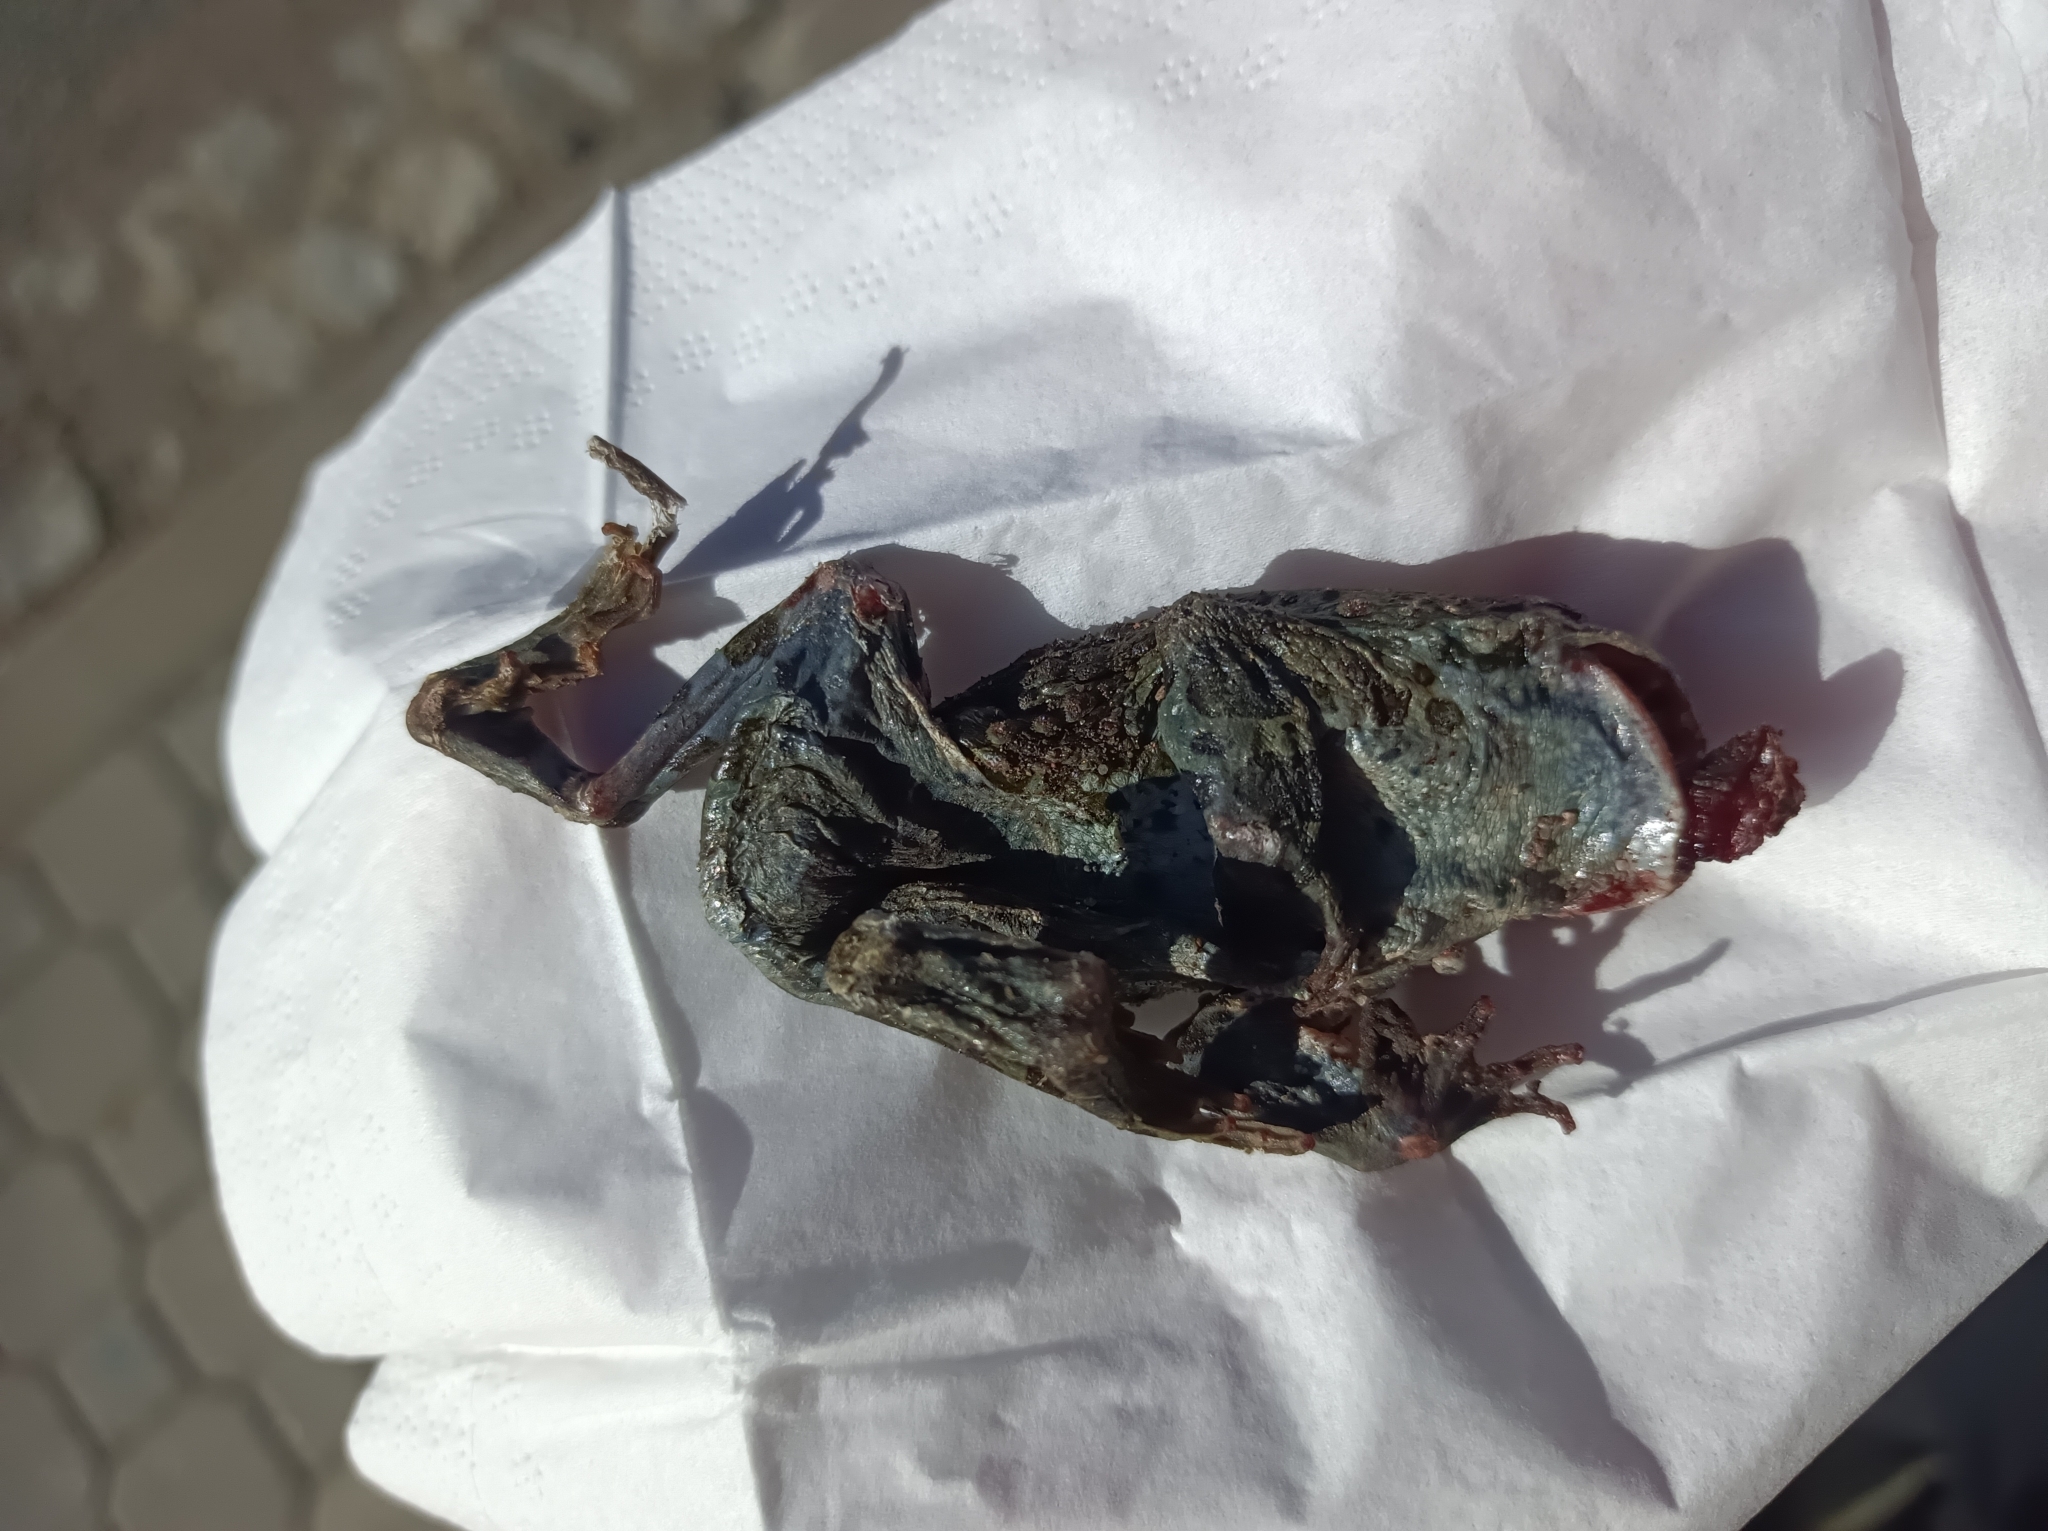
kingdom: Animalia
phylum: Chordata
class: Amphibia
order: Anura
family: Bufonidae
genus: Bufotes
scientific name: Bufotes viridis
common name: European green toad
